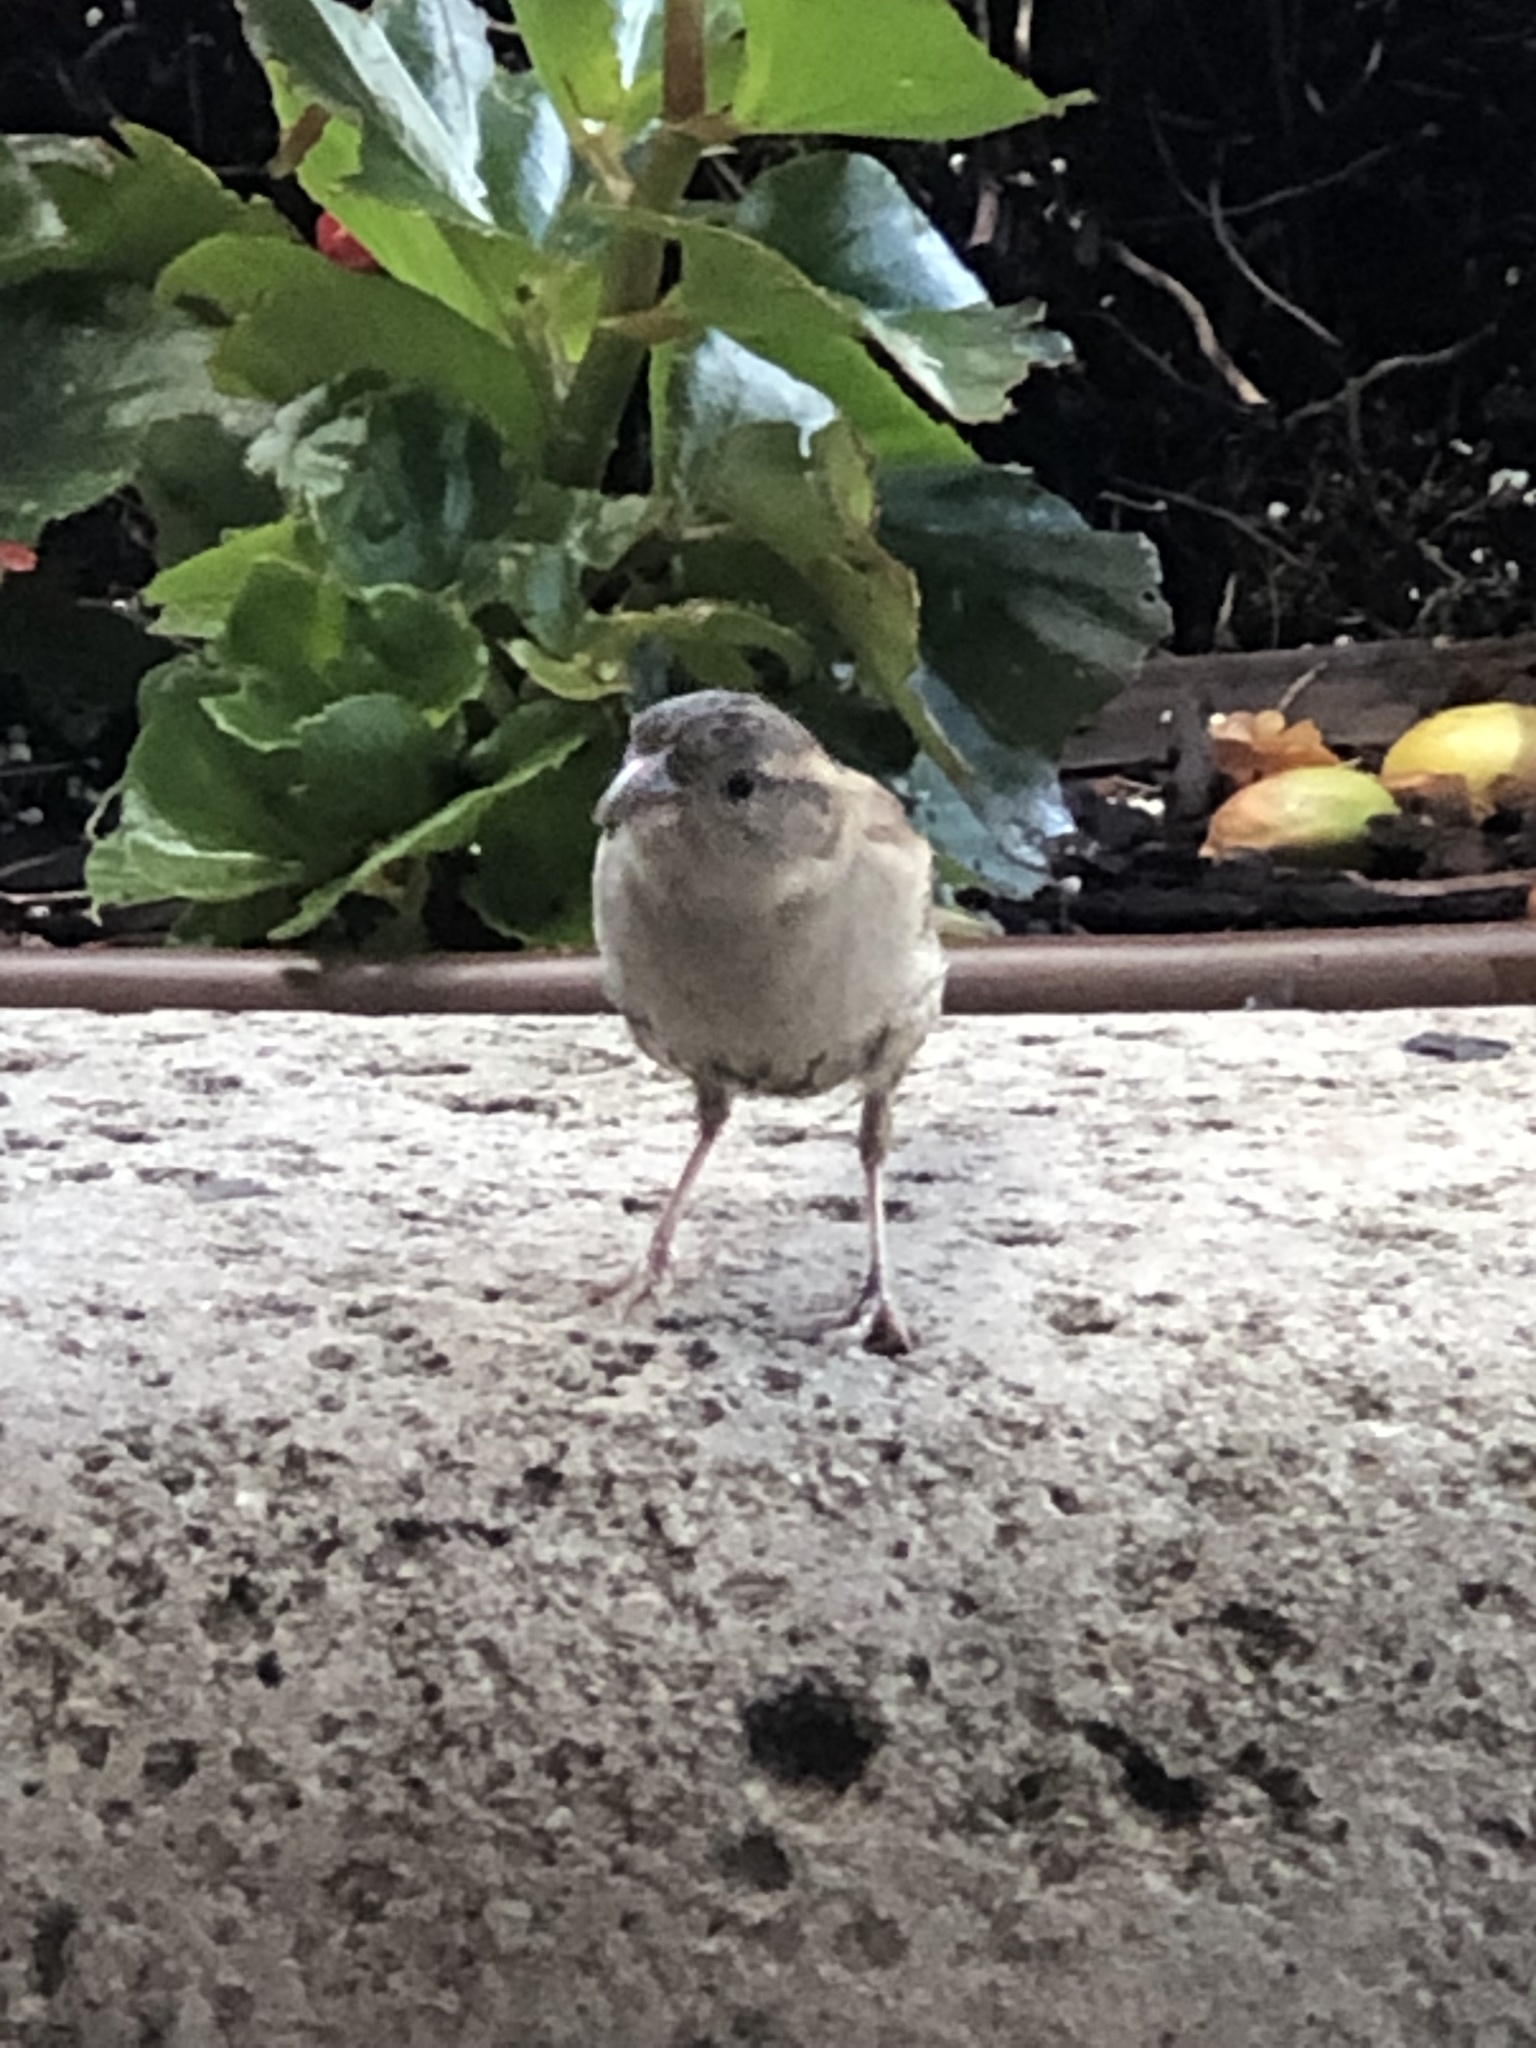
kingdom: Animalia
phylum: Chordata
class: Aves
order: Passeriformes
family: Passeridae
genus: Passer
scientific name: Passer domesticus
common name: House sparrow
